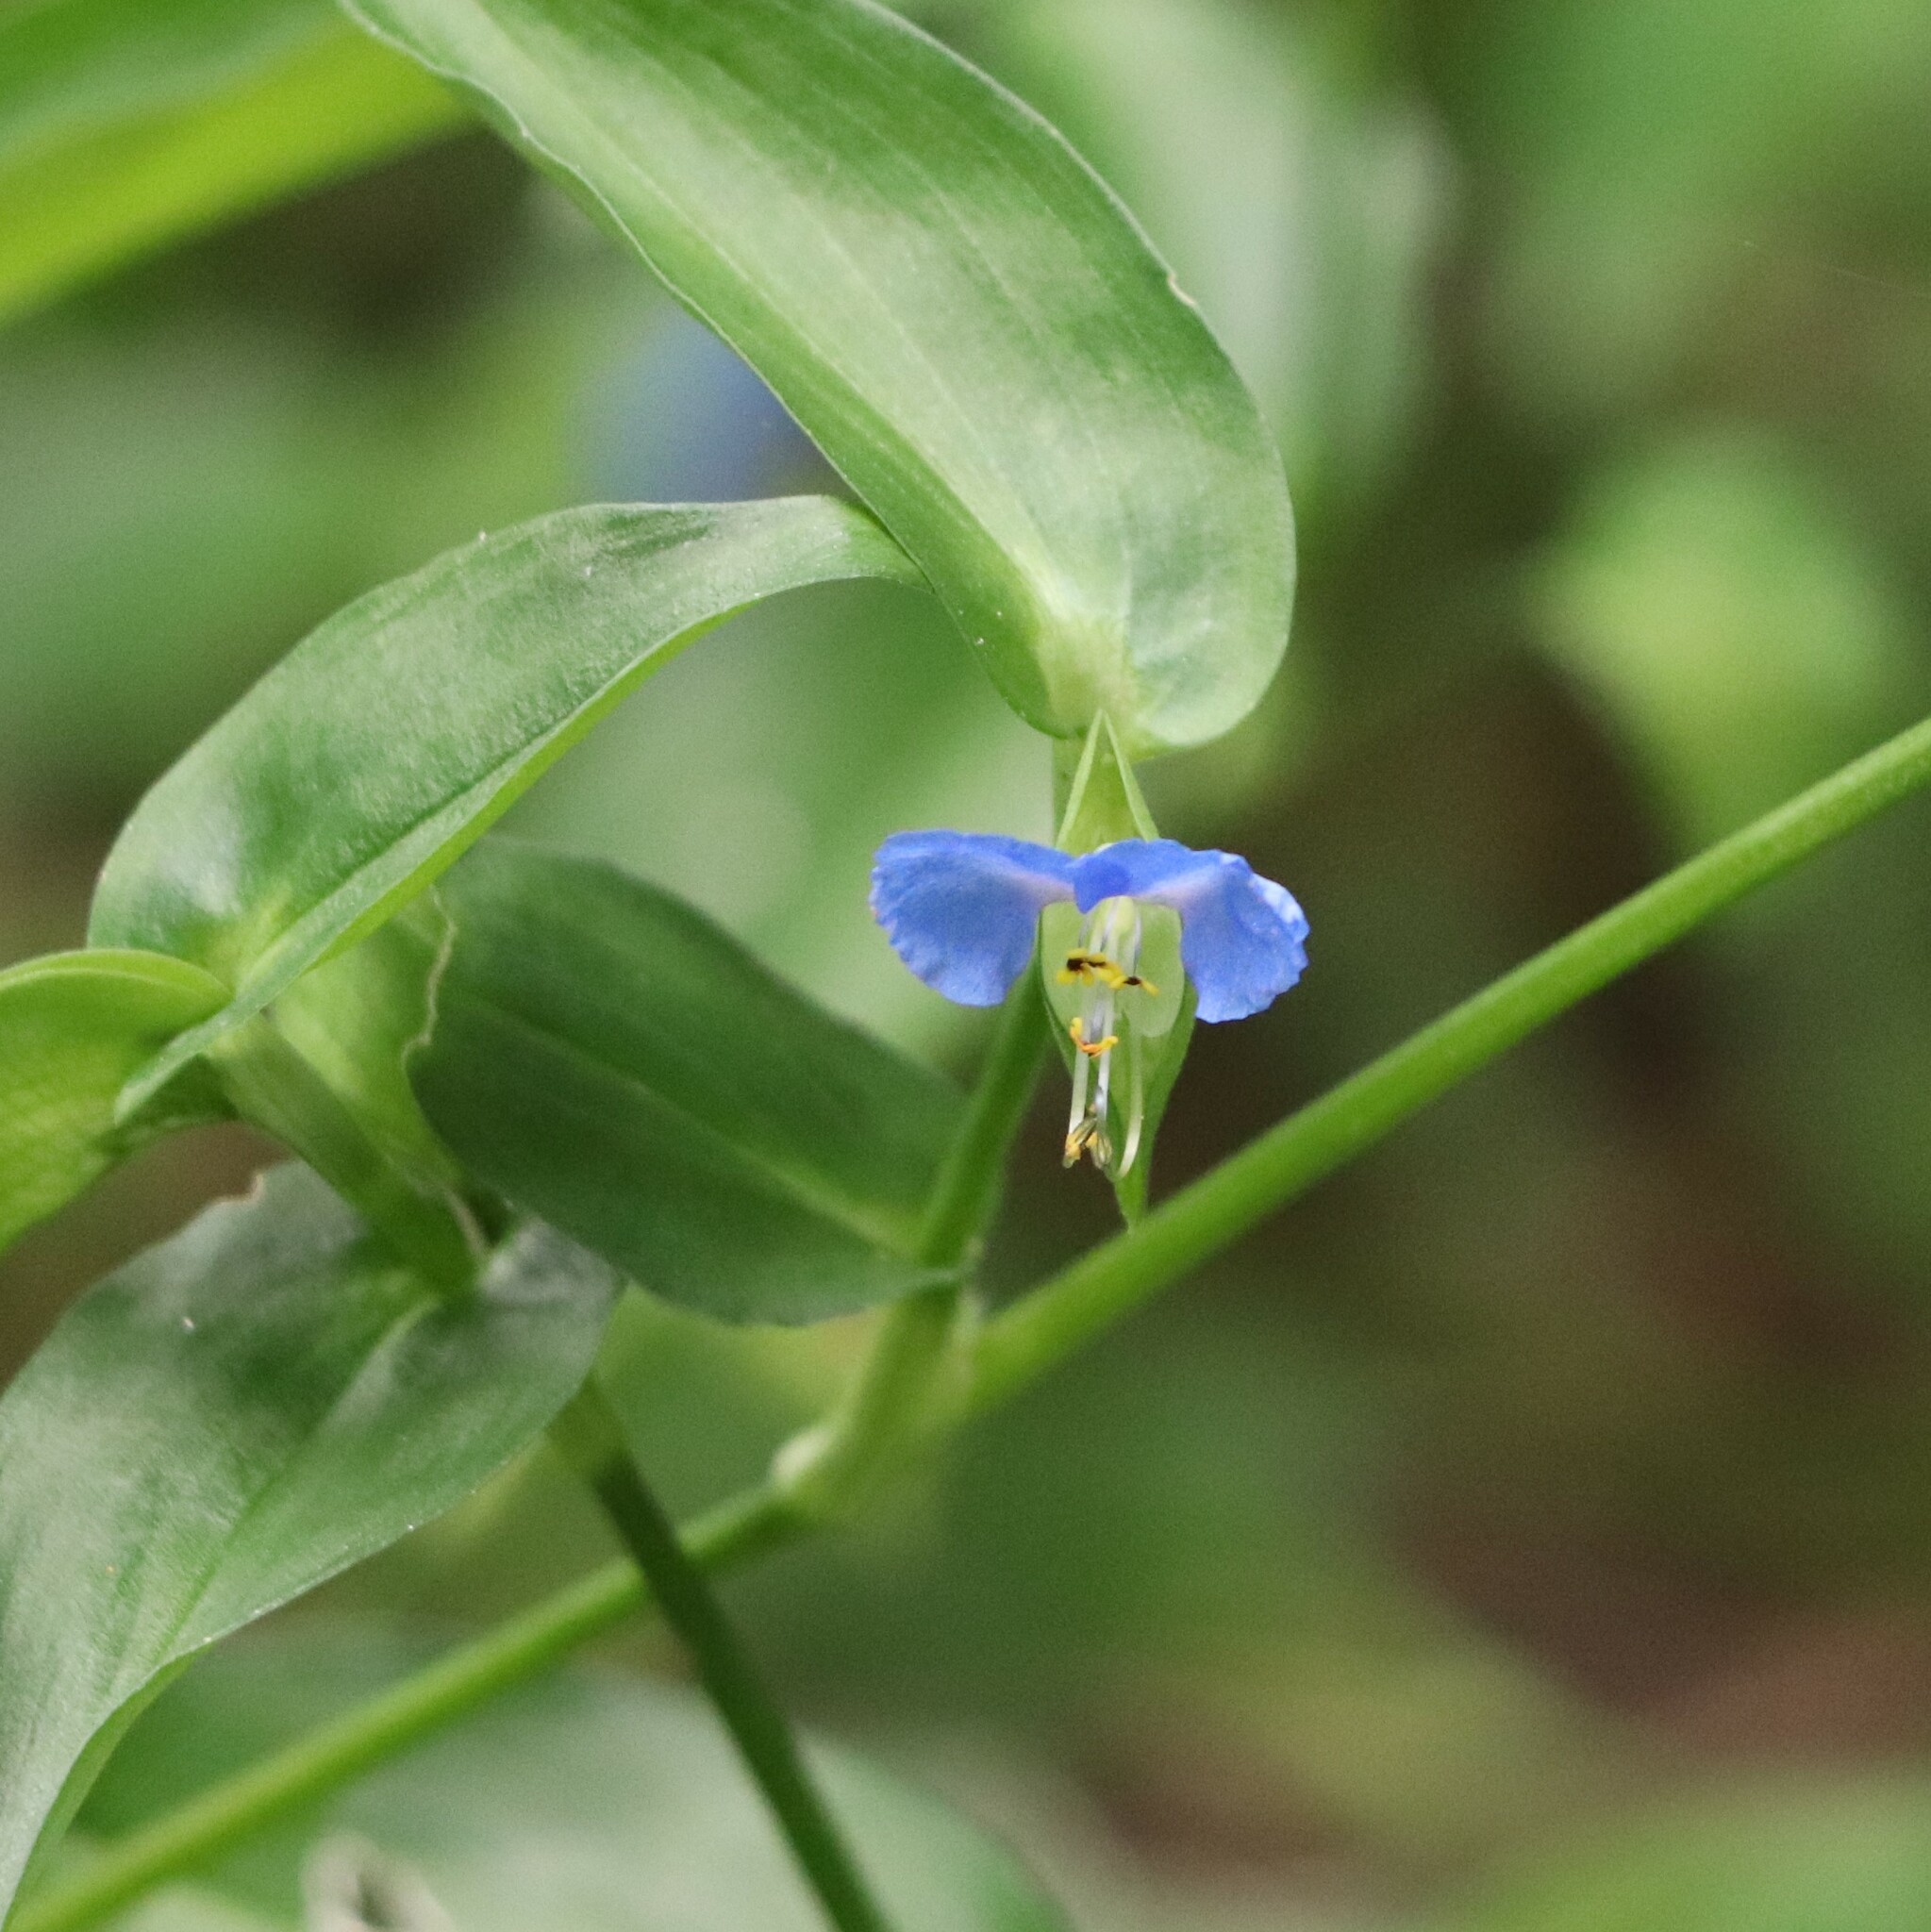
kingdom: Plantae
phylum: Tracheophyta
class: Liliopsida
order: Commelinales
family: Commelinaceae
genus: Commelina
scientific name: Commelina communis
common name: Asiatic dayflower
